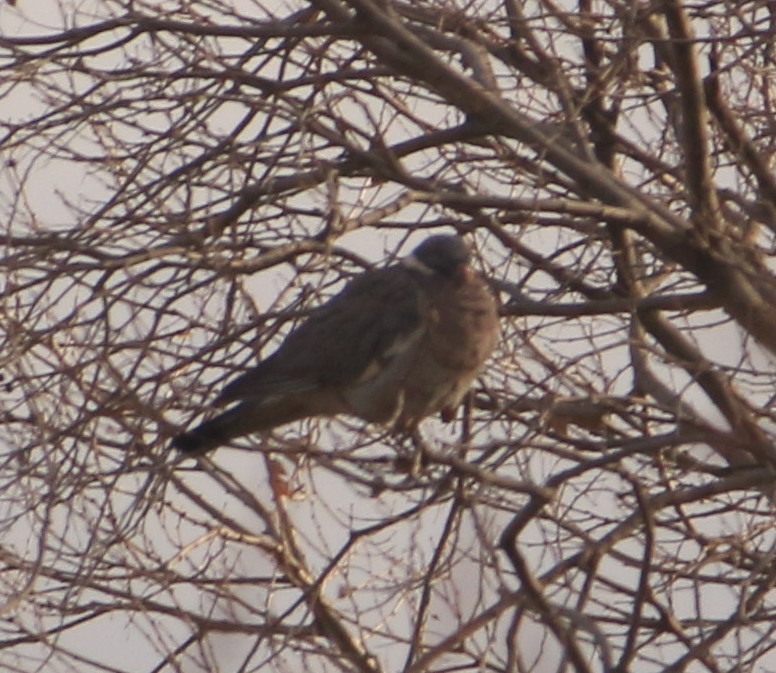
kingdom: Animalia
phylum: Chordata
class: Aves
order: Columbiformes
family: Columbidae
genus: Columba
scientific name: Columba palumbus
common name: Common wood pigeon
